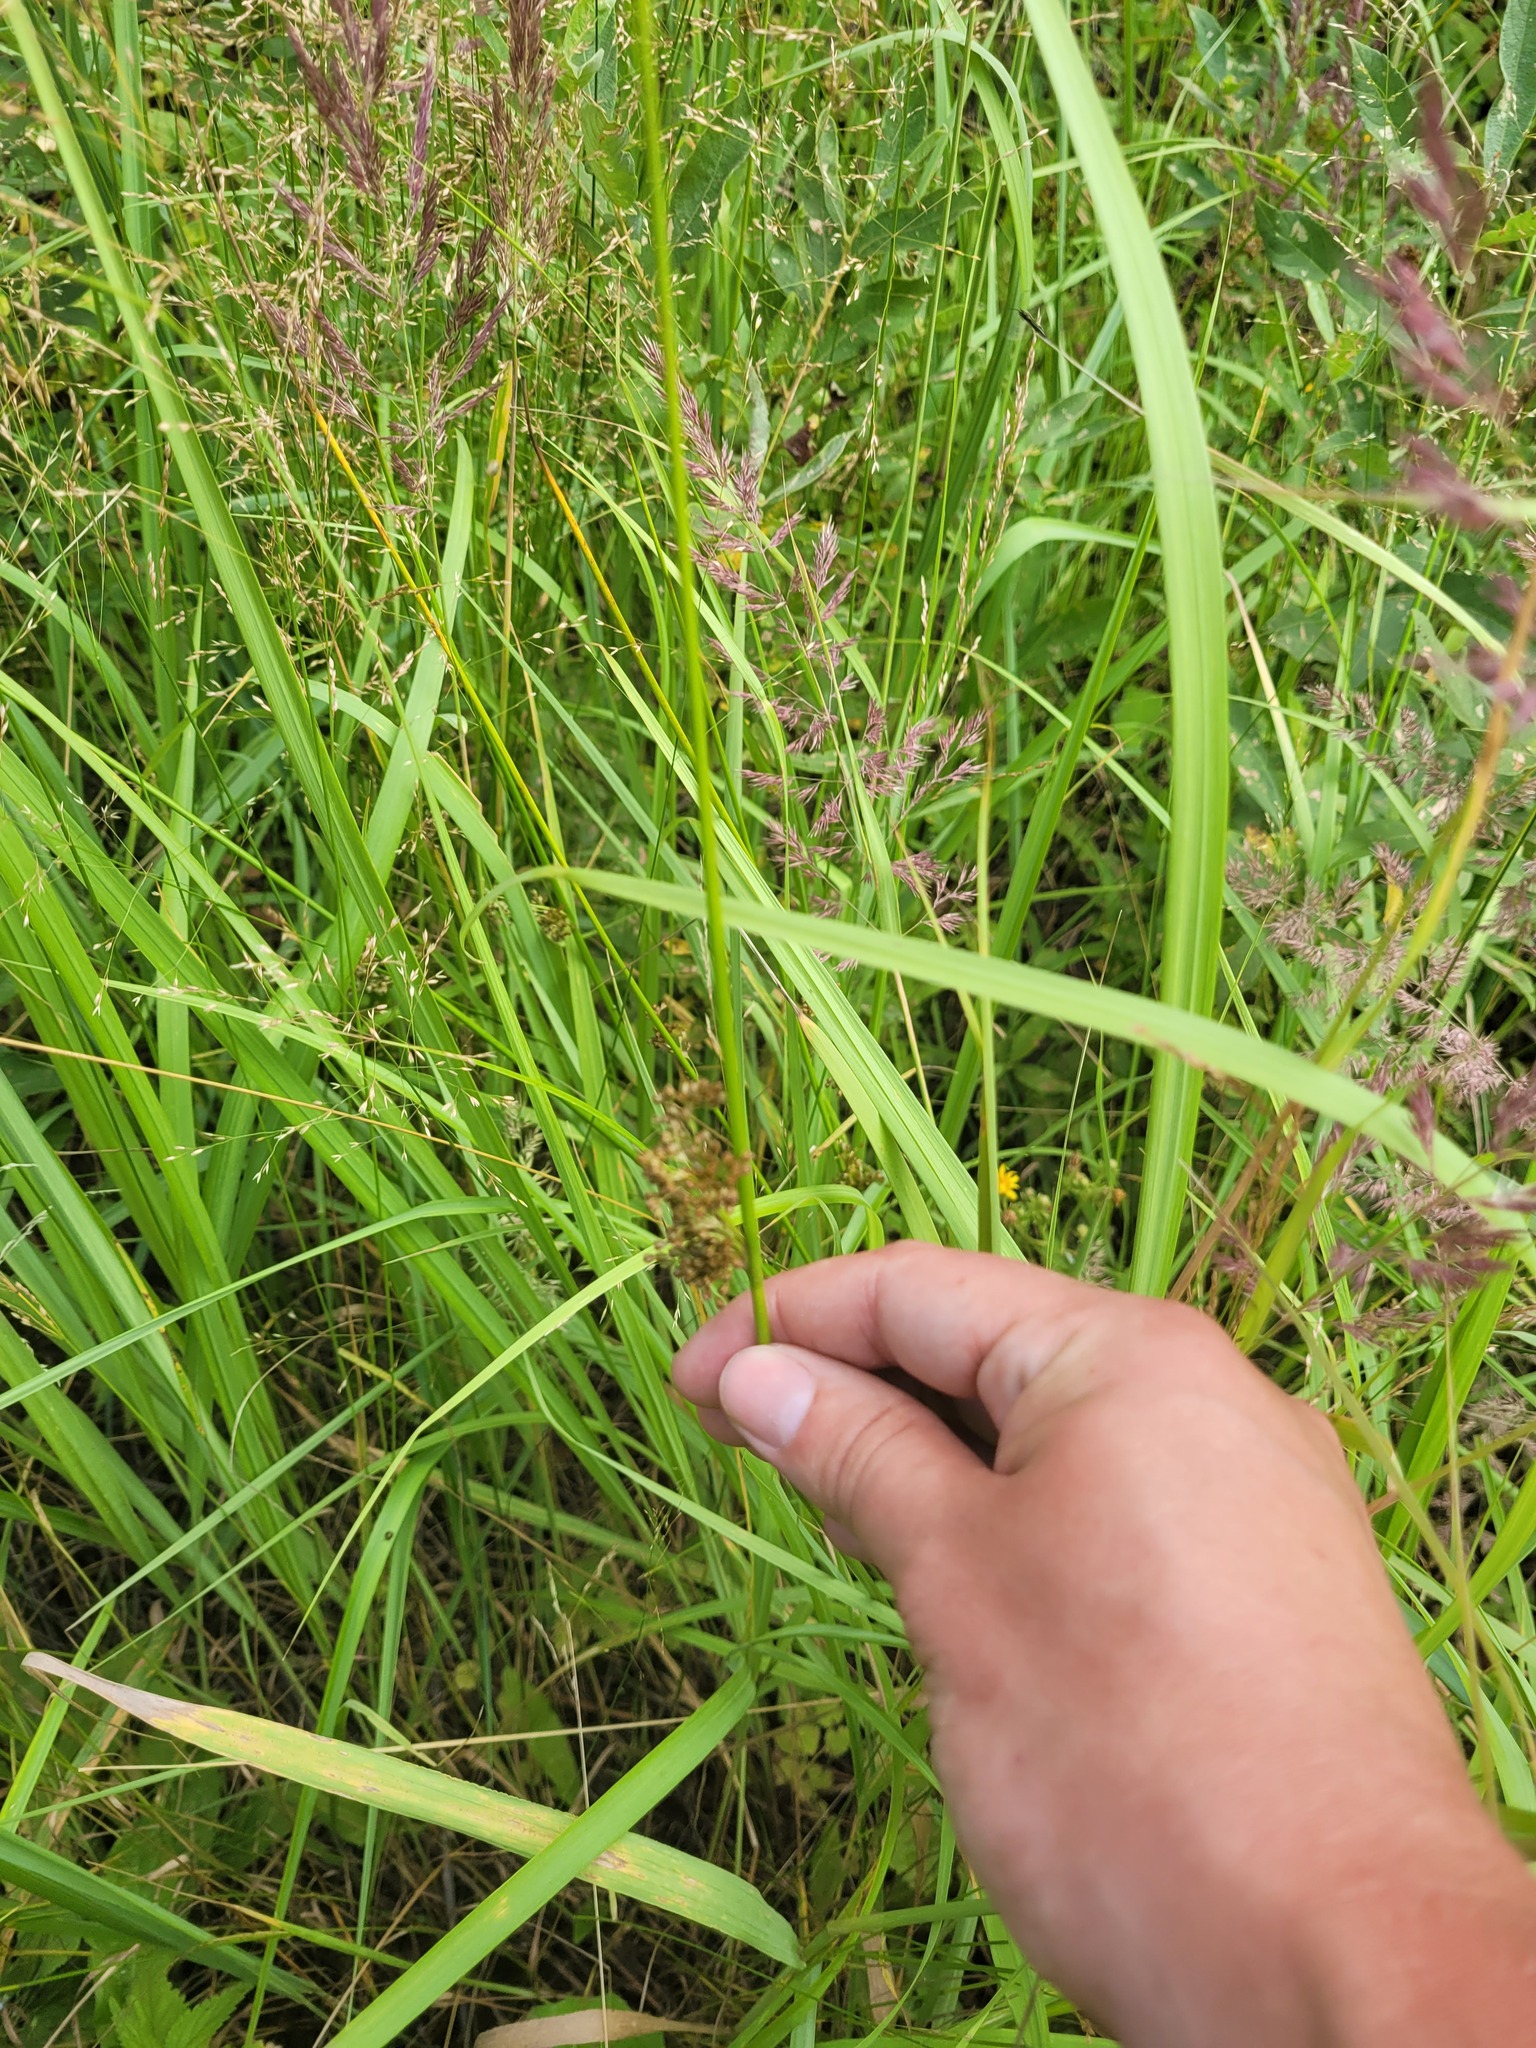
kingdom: Plantae
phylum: Tracheophyta
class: Liliopsida
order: Poales
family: Juncaceae
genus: Juncus
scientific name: Juncus effusus
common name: Soft rush
